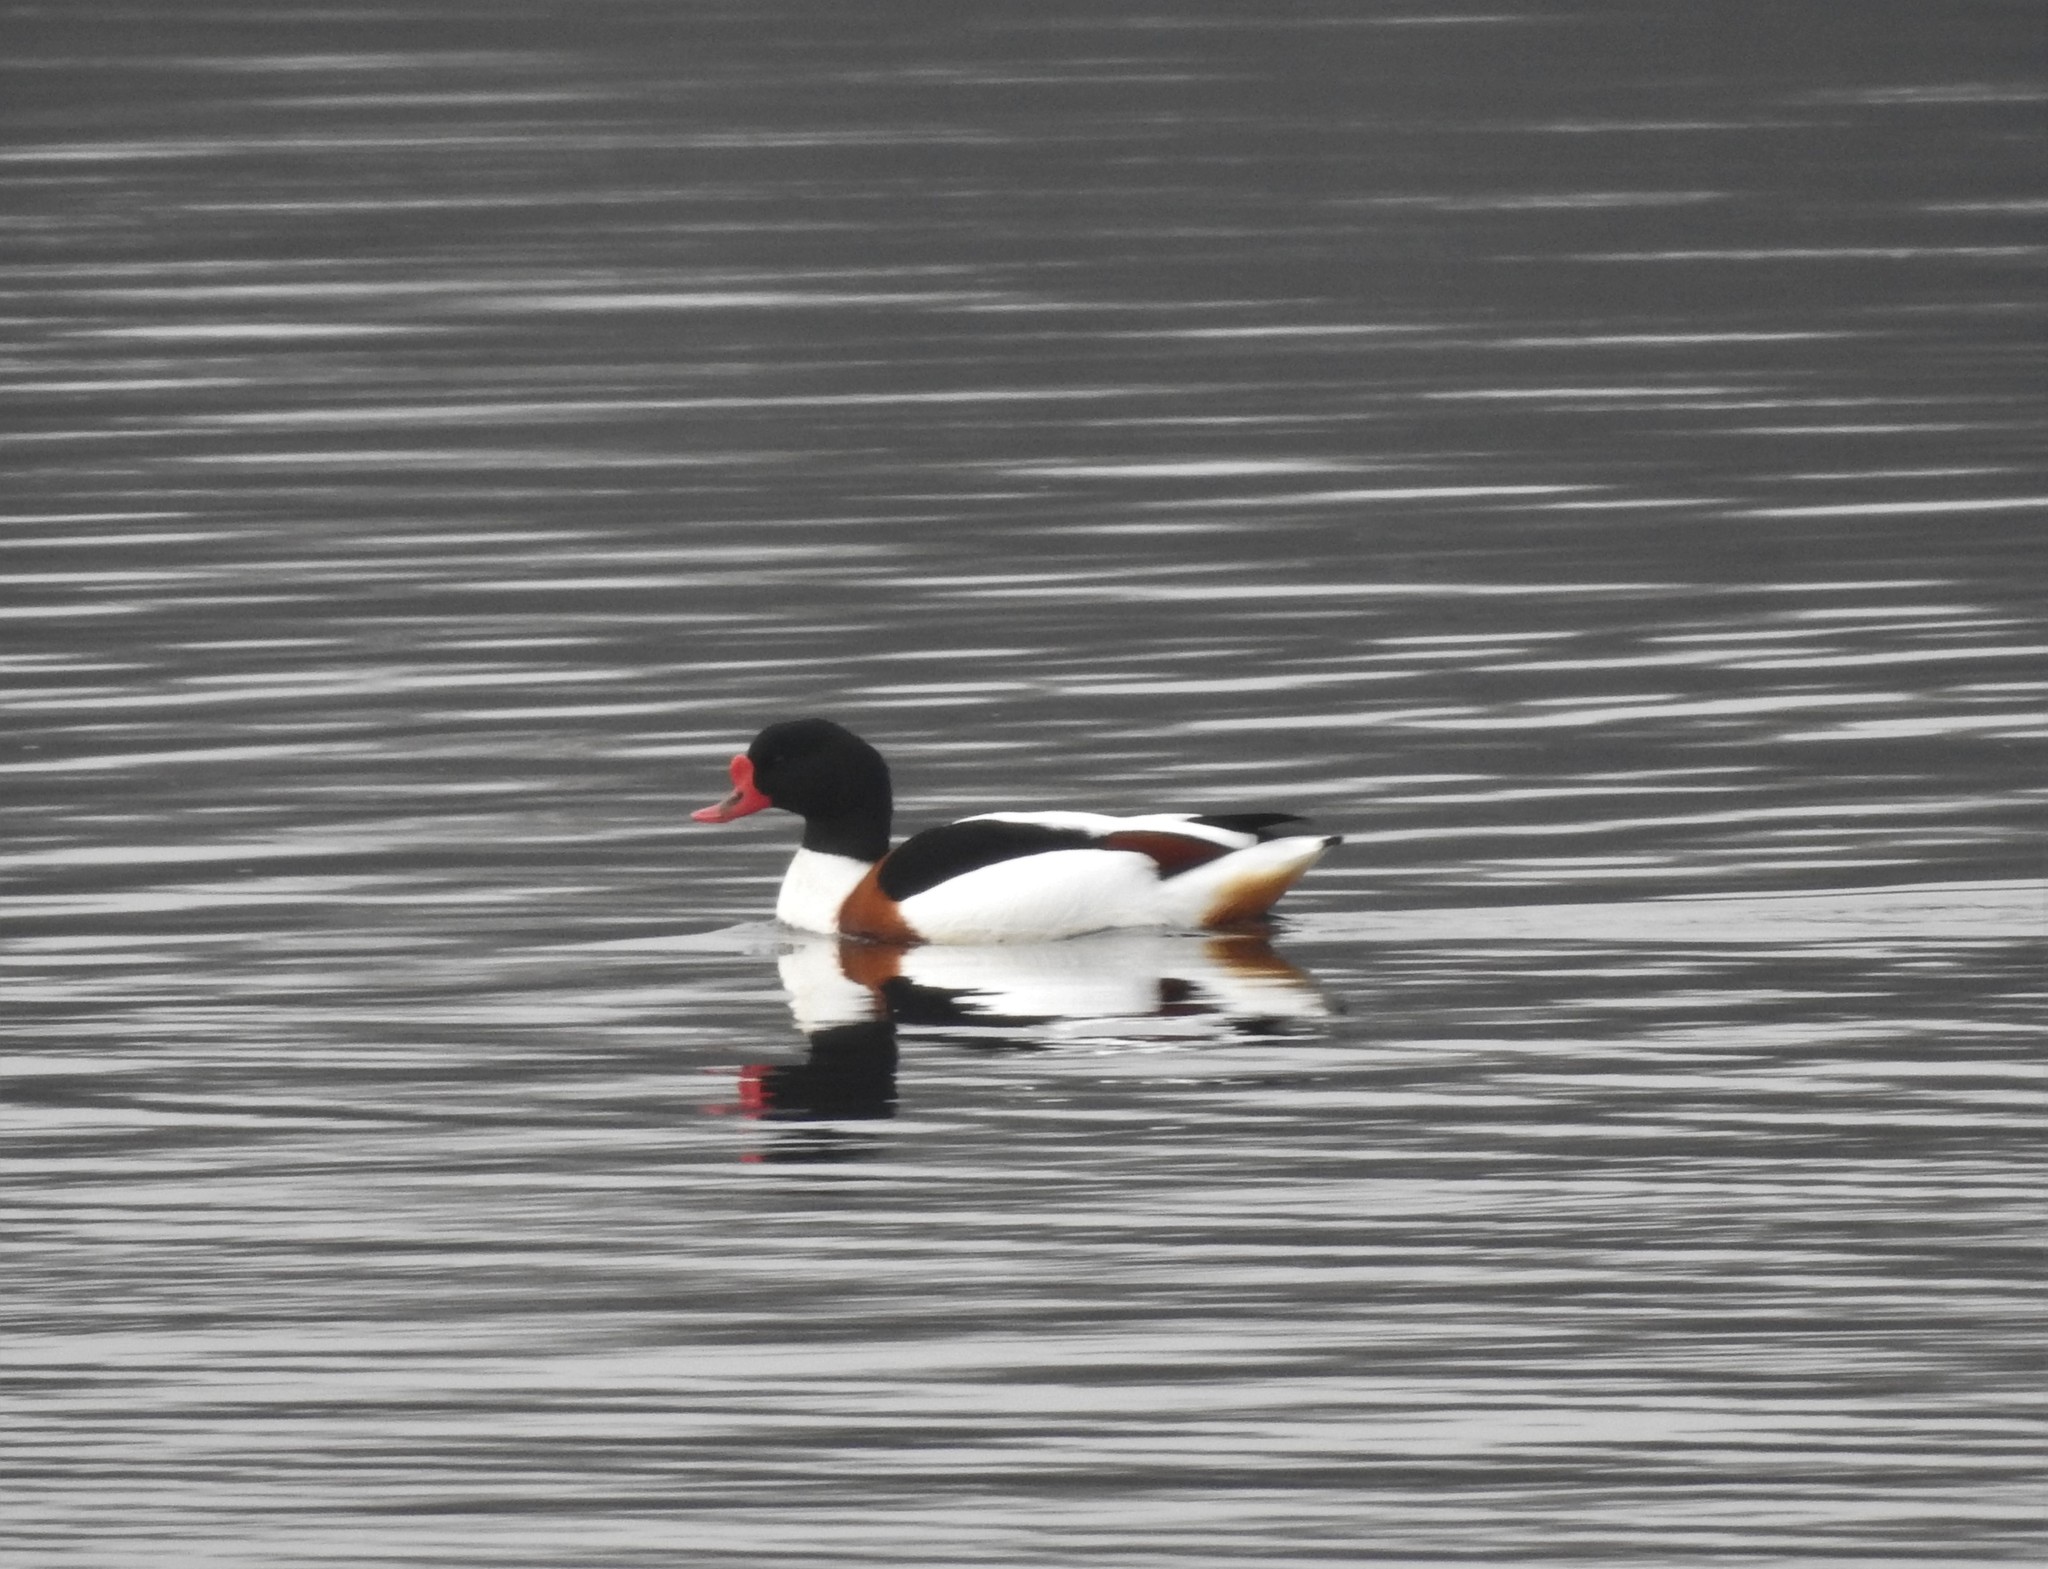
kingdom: Animalia
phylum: Chordata
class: Aves
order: Anseriformes
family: Anatidae
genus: Tadorna
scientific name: Tadorna tadorna
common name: Common shelduck
